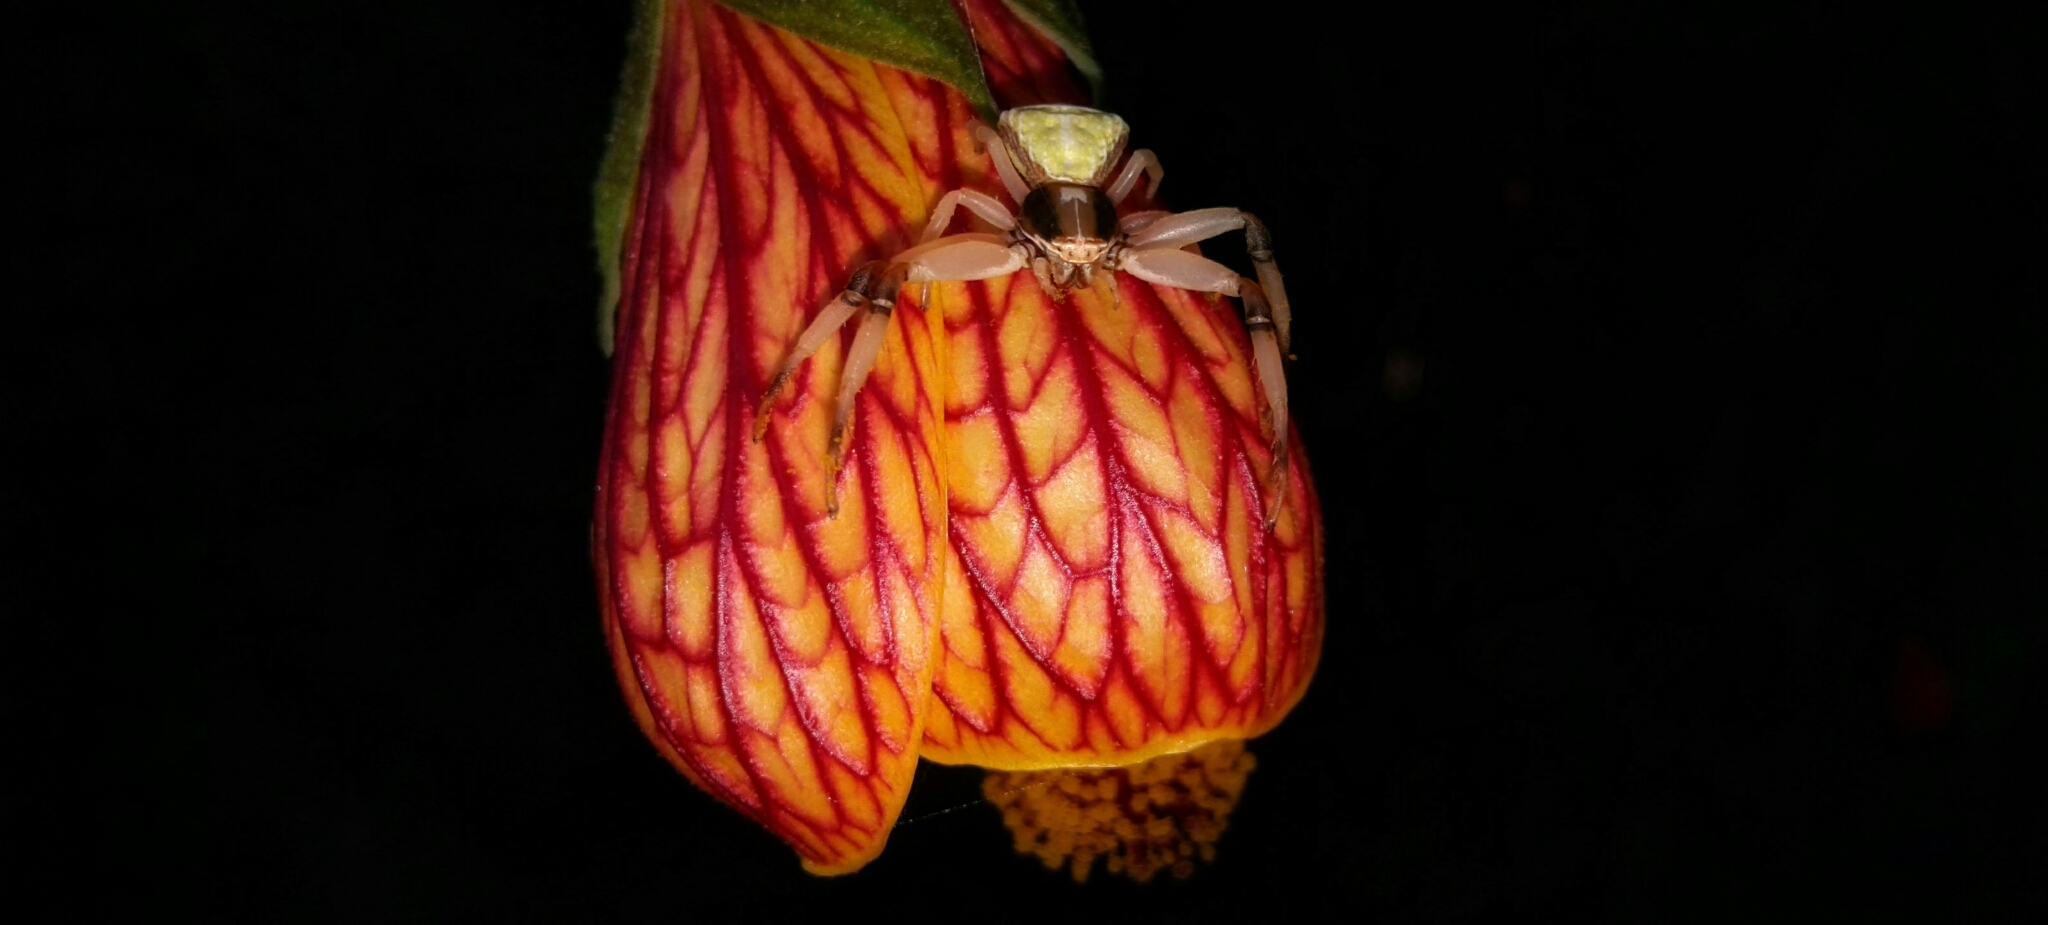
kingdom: Plantae
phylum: Tracheophyta
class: Magnoliopsida
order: Malvales
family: Malvaceae
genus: Callianthe
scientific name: Callianthe picta
